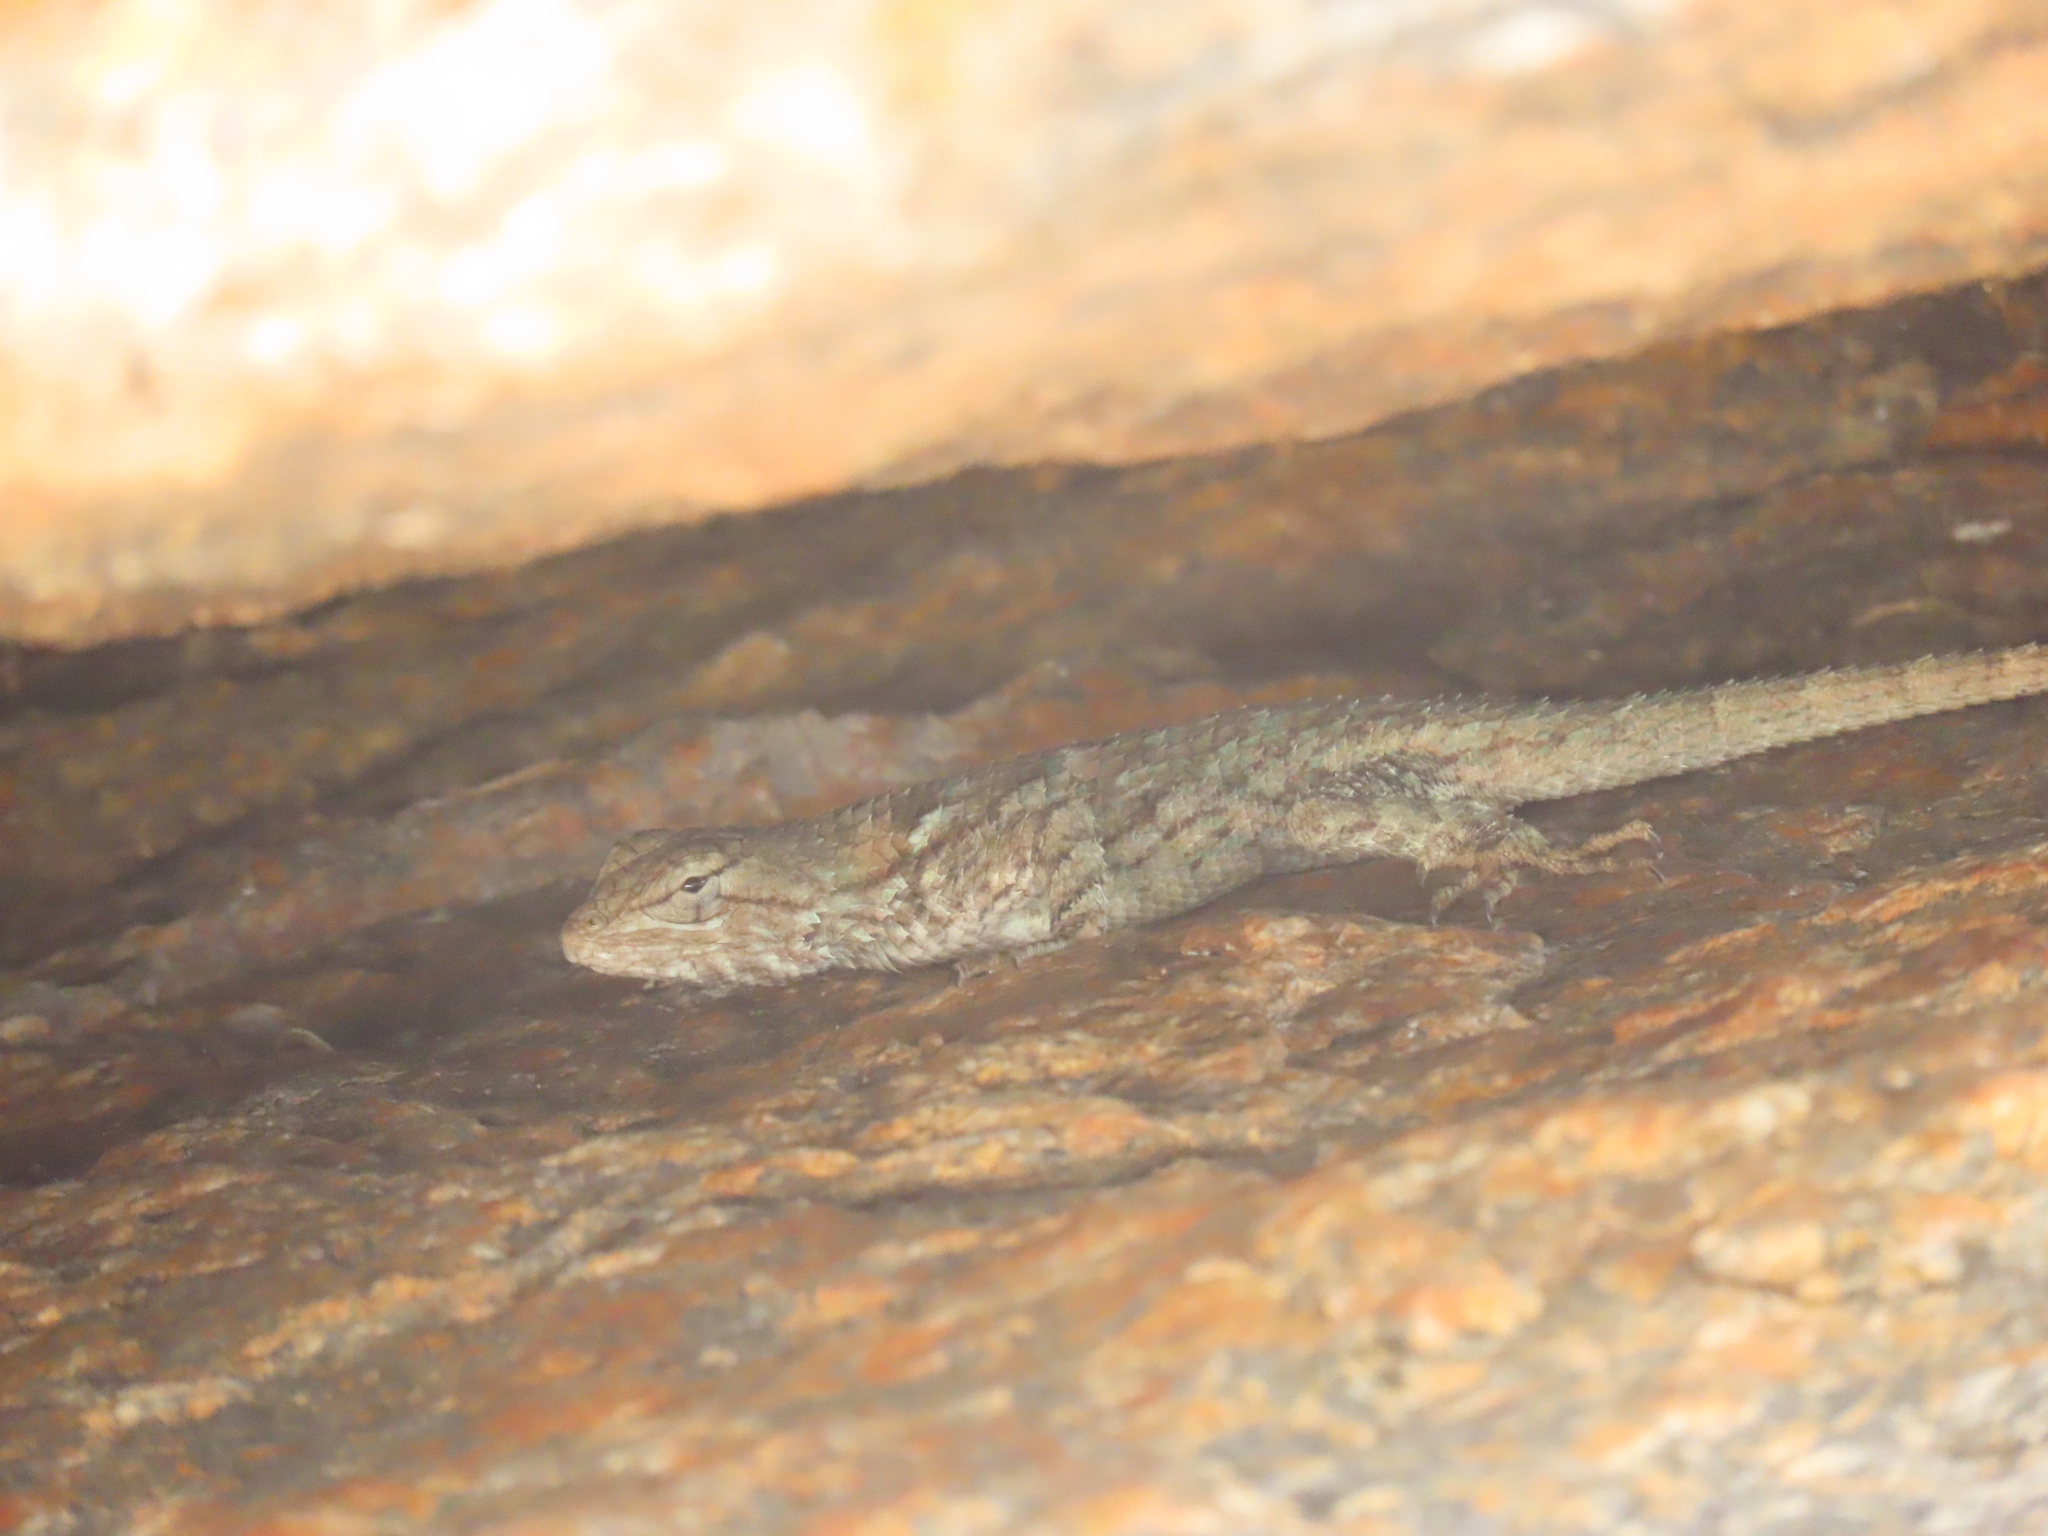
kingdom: Animalia
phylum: Chordata
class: Squamata
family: Phrynosomatidae
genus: Sceloporus
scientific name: Sceloporus clarkii
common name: Clark's spiny lizard
